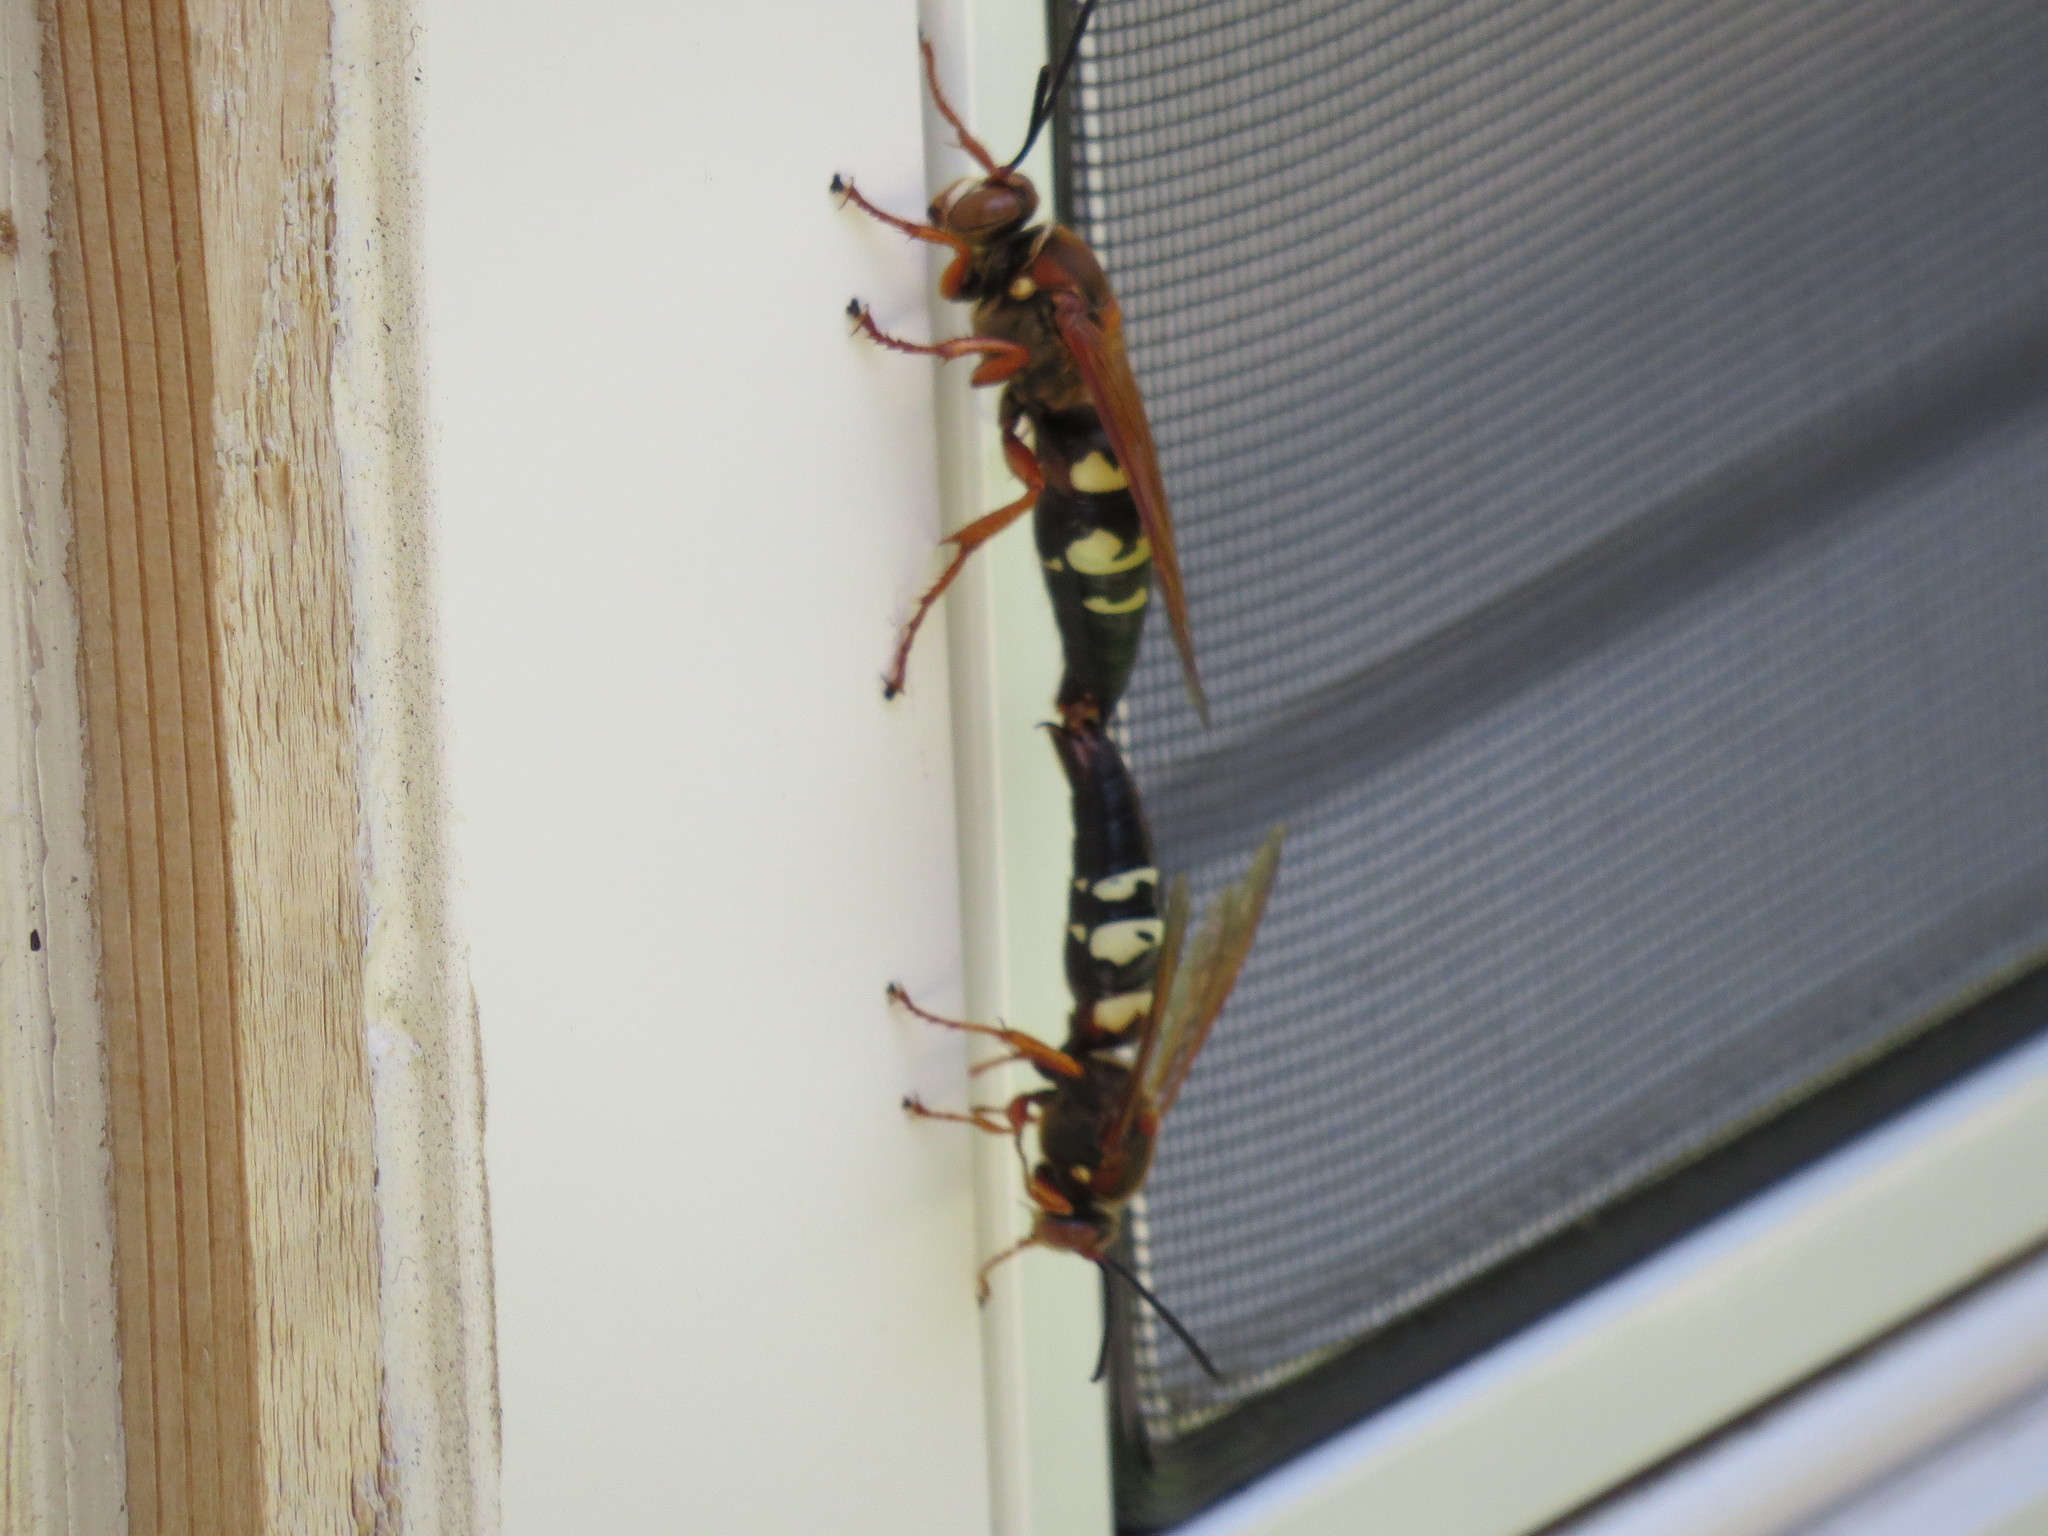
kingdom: Animalia
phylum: Arthropoda
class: Insecta
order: Hymenoptera
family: Crabronidae
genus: Sphecius
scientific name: Sphecius speciosus
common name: Cicada killer
